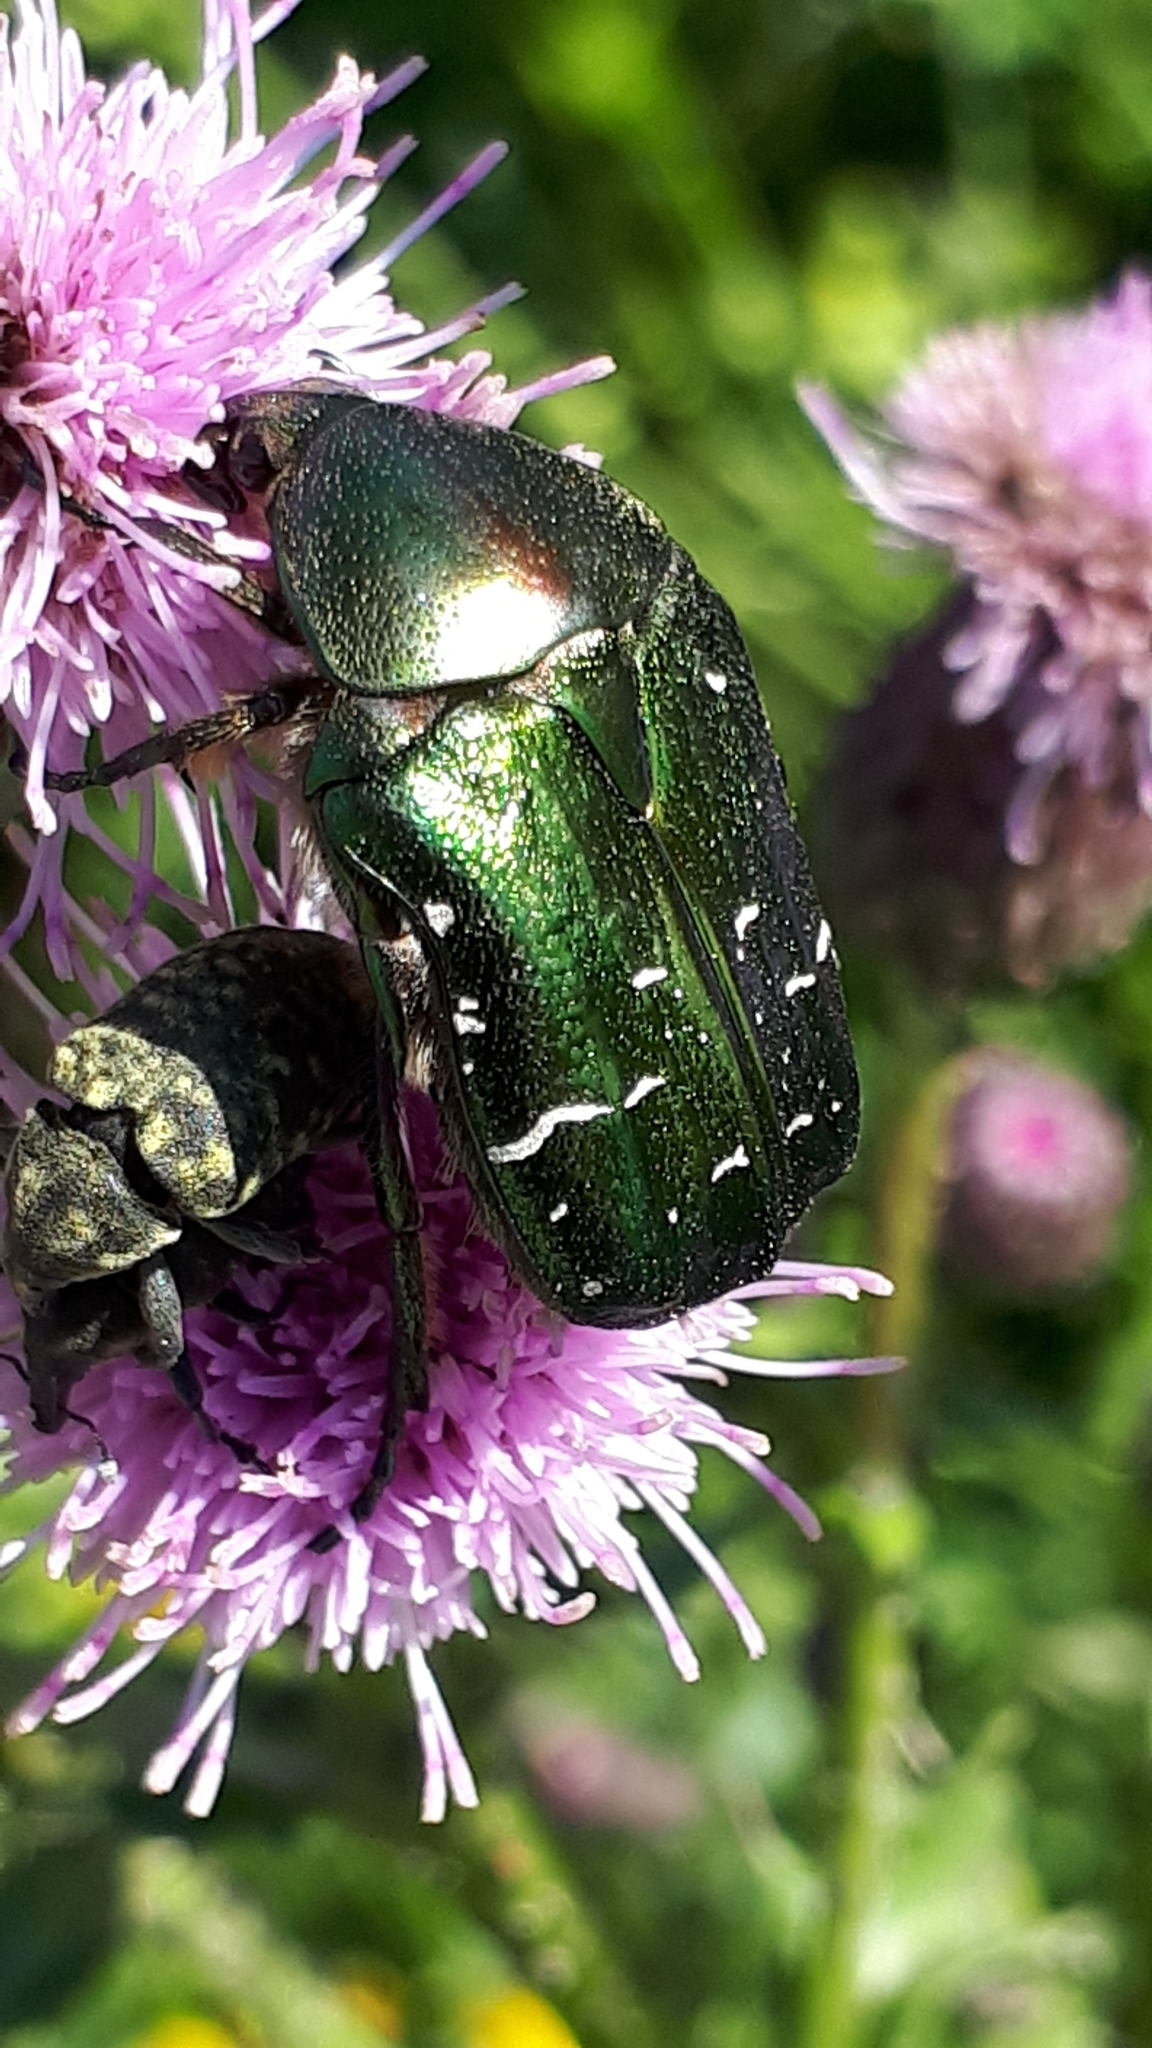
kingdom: Animalia
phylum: Arthropoda
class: Insecta
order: Coleoptera
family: Scarabaeidae
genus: Cetonia
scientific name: Cetonia aurata
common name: Rose chafer
